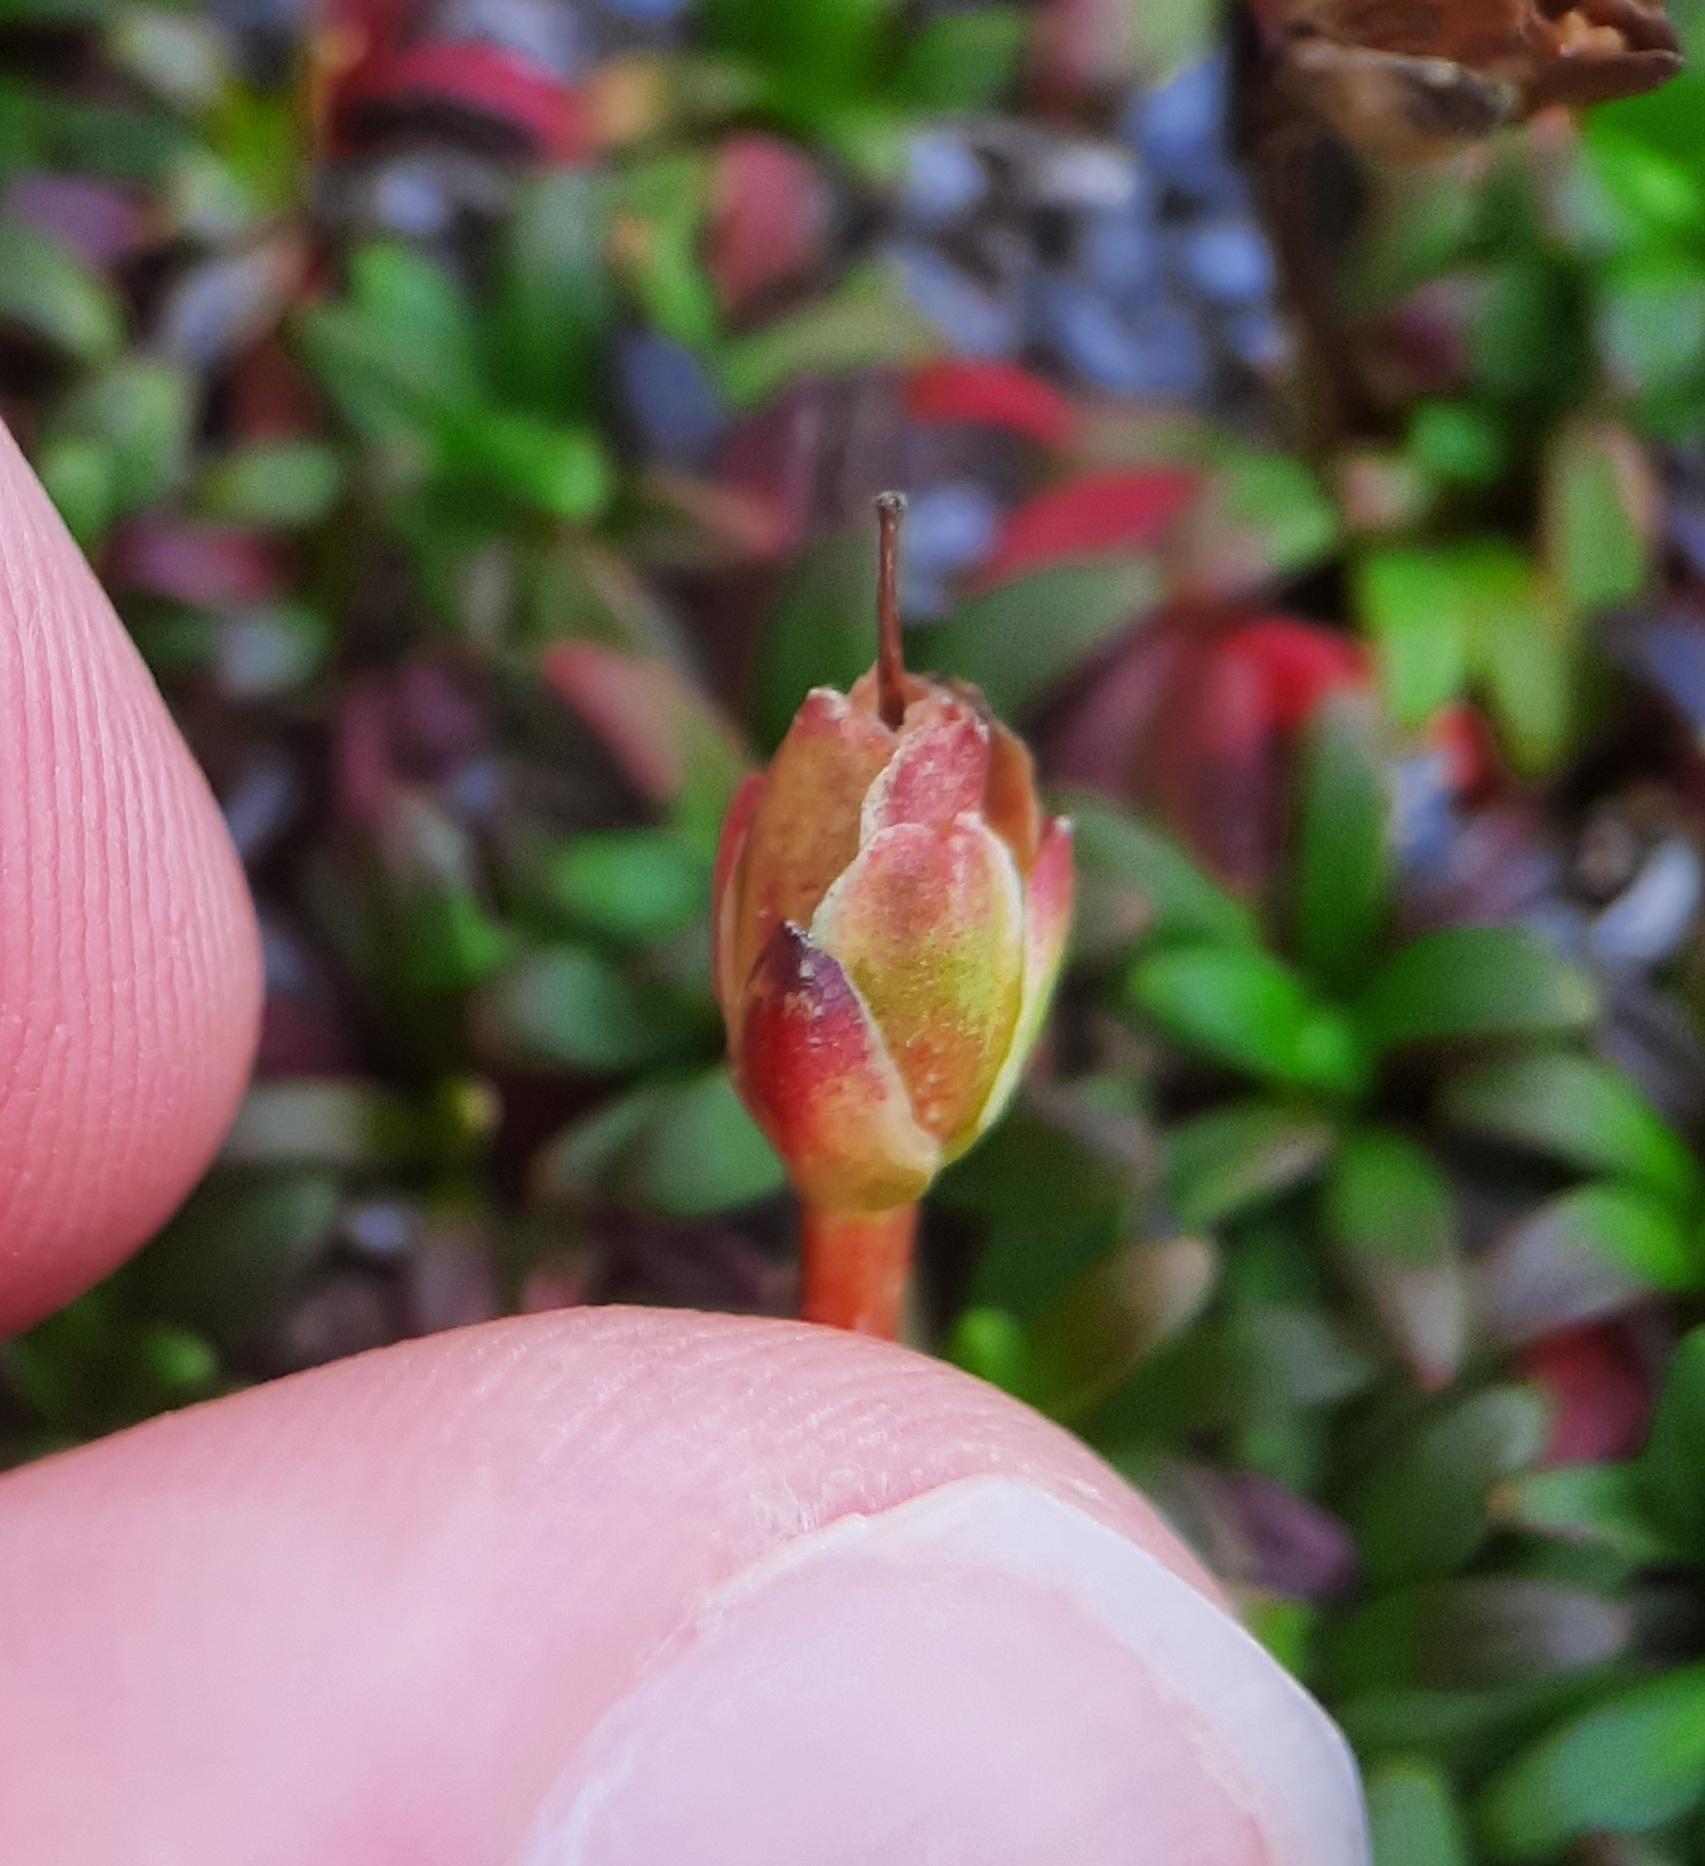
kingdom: Plantae
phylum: Tracheophyta
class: Magnoliopsida
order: Ericales
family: Diapensiaceae
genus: Diapensia
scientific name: Diapensia lapponica
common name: Diapensia
